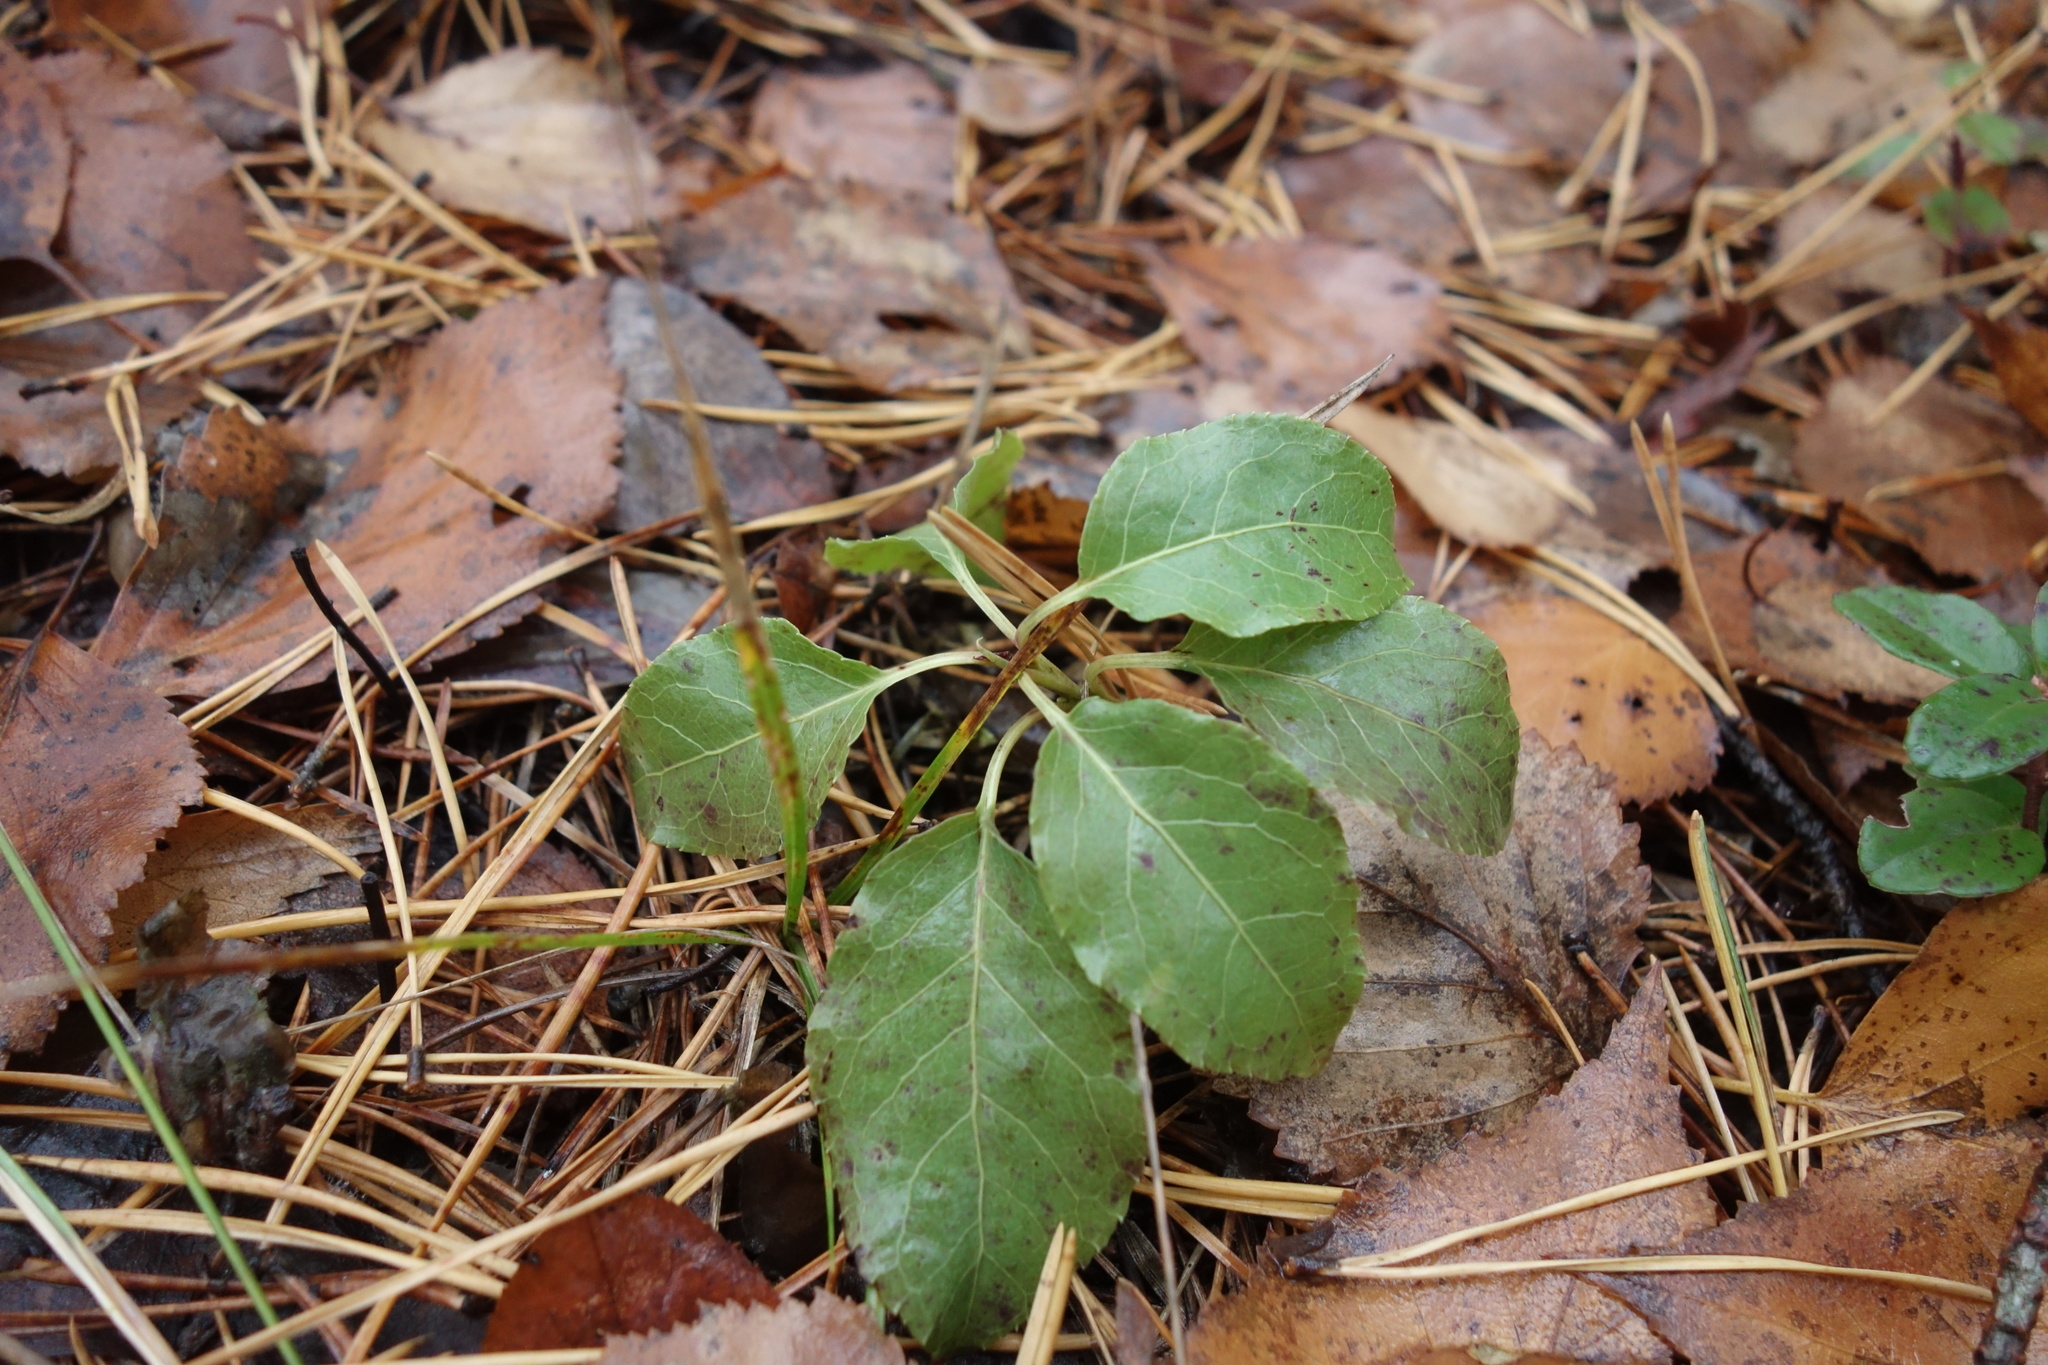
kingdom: Plantae
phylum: Tracheophyta
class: Magnoliopsida
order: Ericales
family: Ericaceae
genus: Orthilia
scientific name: Orthilia secunda
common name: One-sided orthilia
